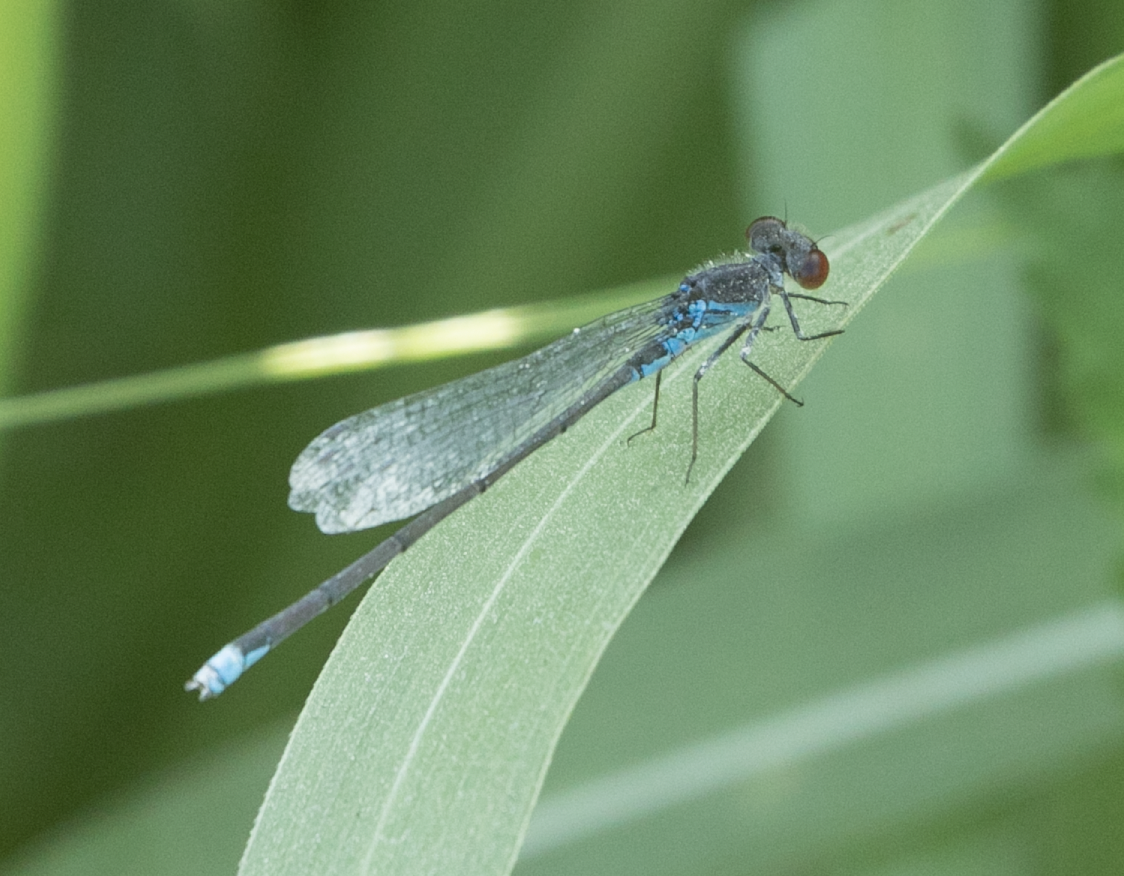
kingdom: Animalia
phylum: Arthropoda
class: Insecta
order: Odonata
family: Coenagrionidae
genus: Erythromma
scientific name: Erythromma viridulum
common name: Small red-eyed damselfly
